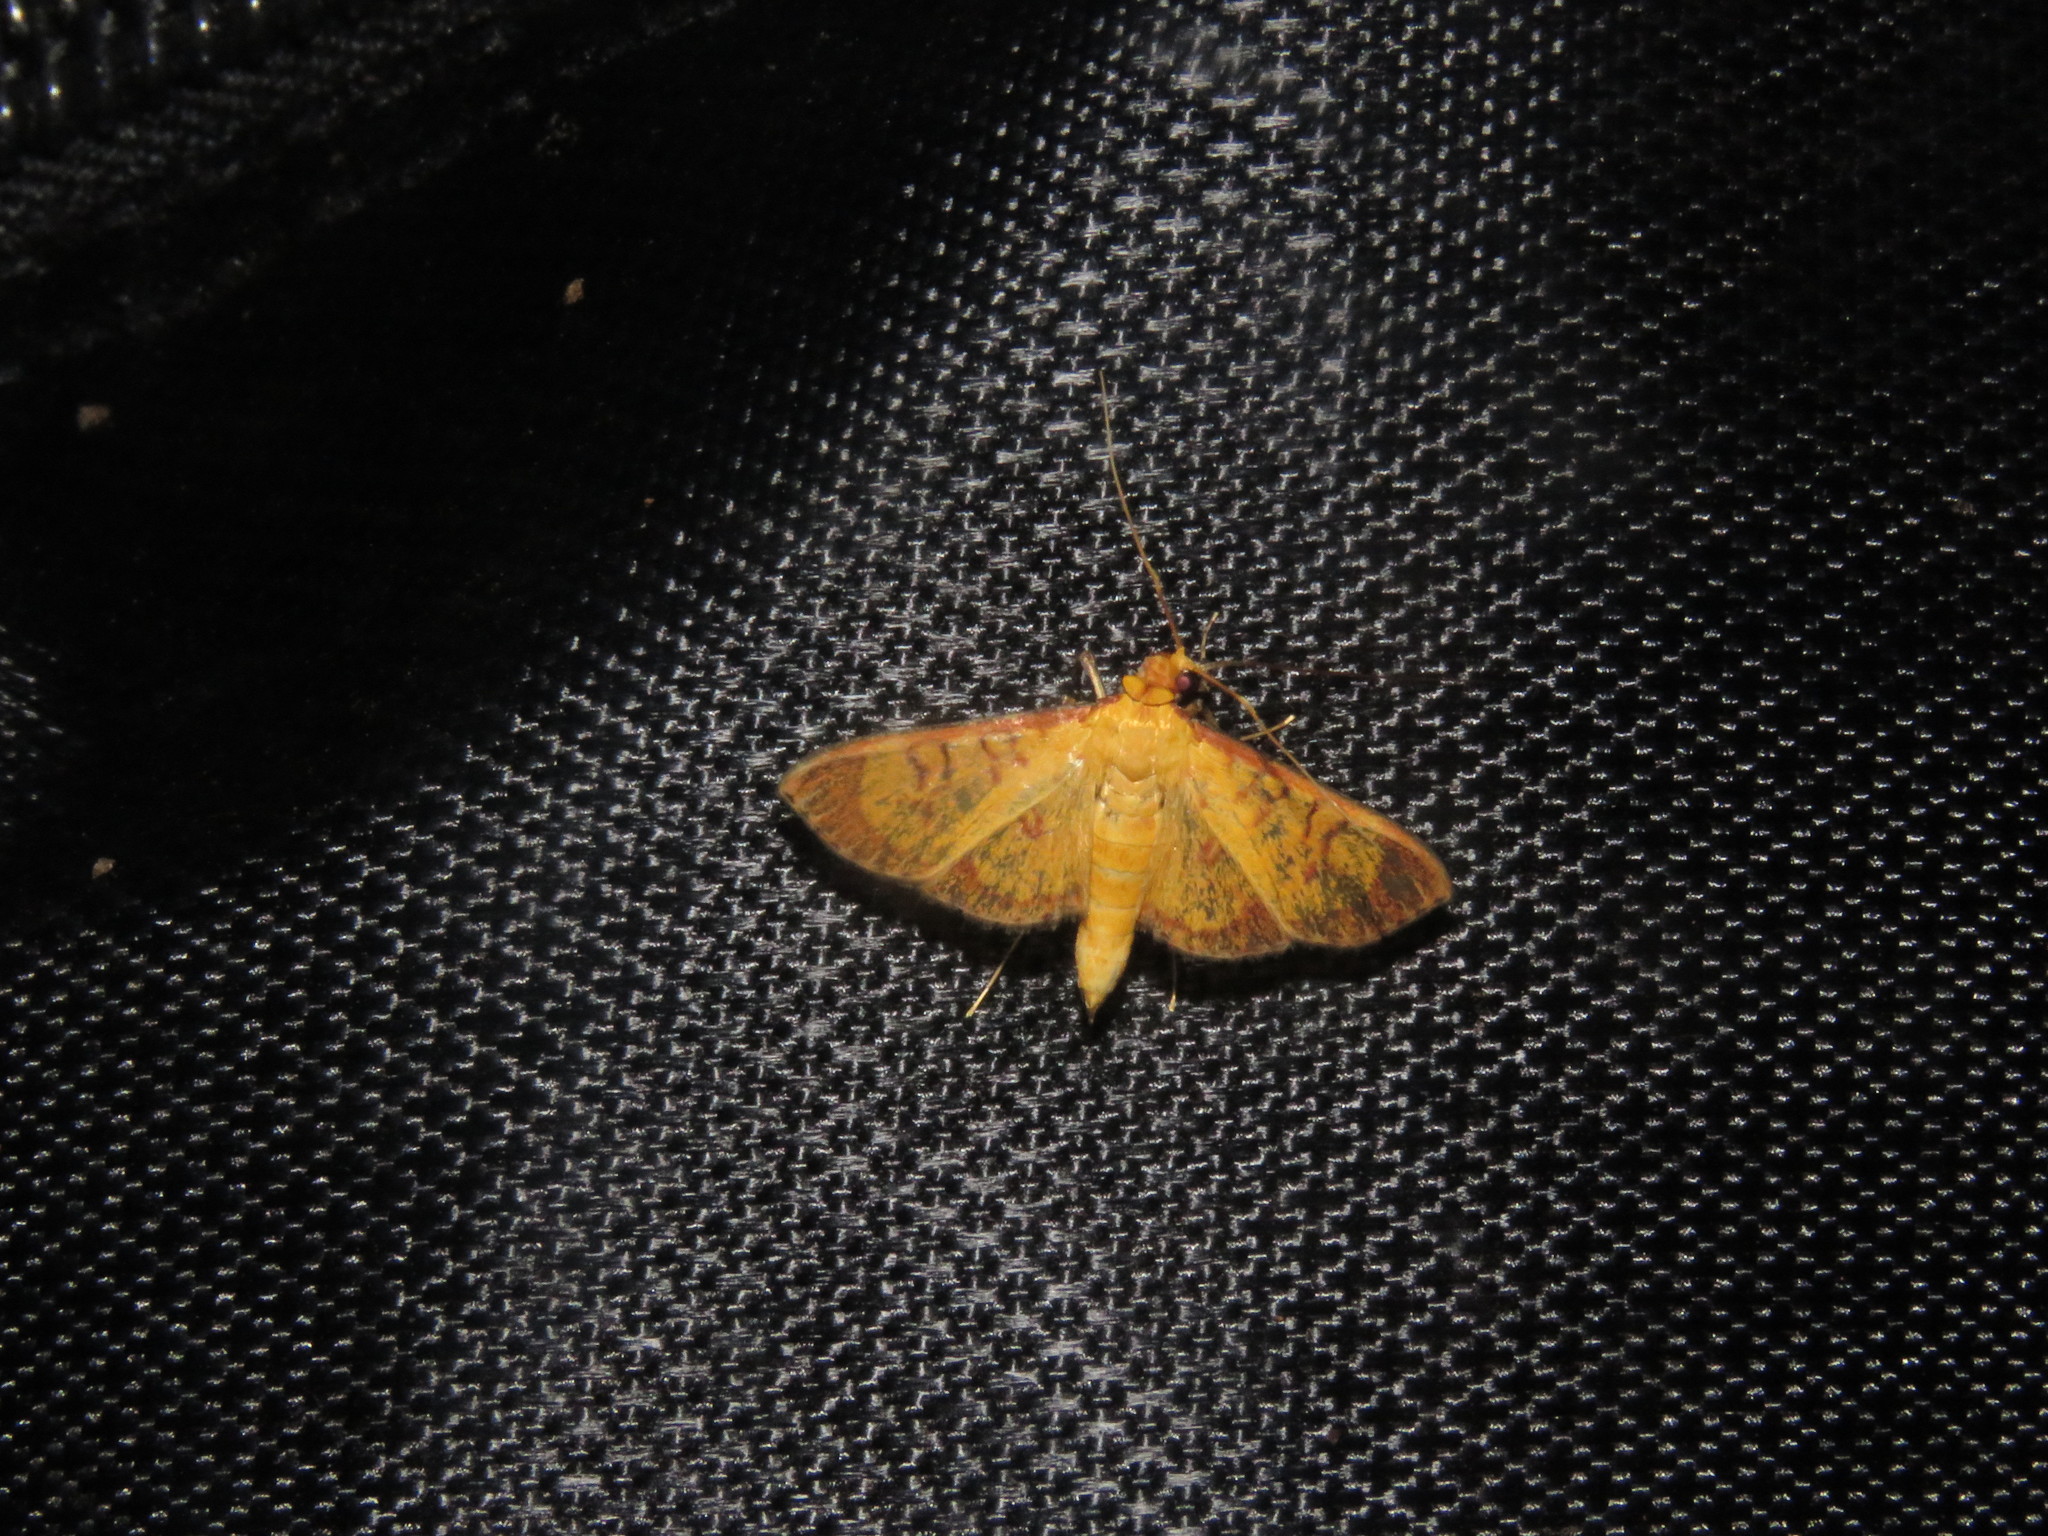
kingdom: Animalia
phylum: Arthropoda
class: Insecta
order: Lepidoptera
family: Crambidae
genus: Trithyris
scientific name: Trithyris
